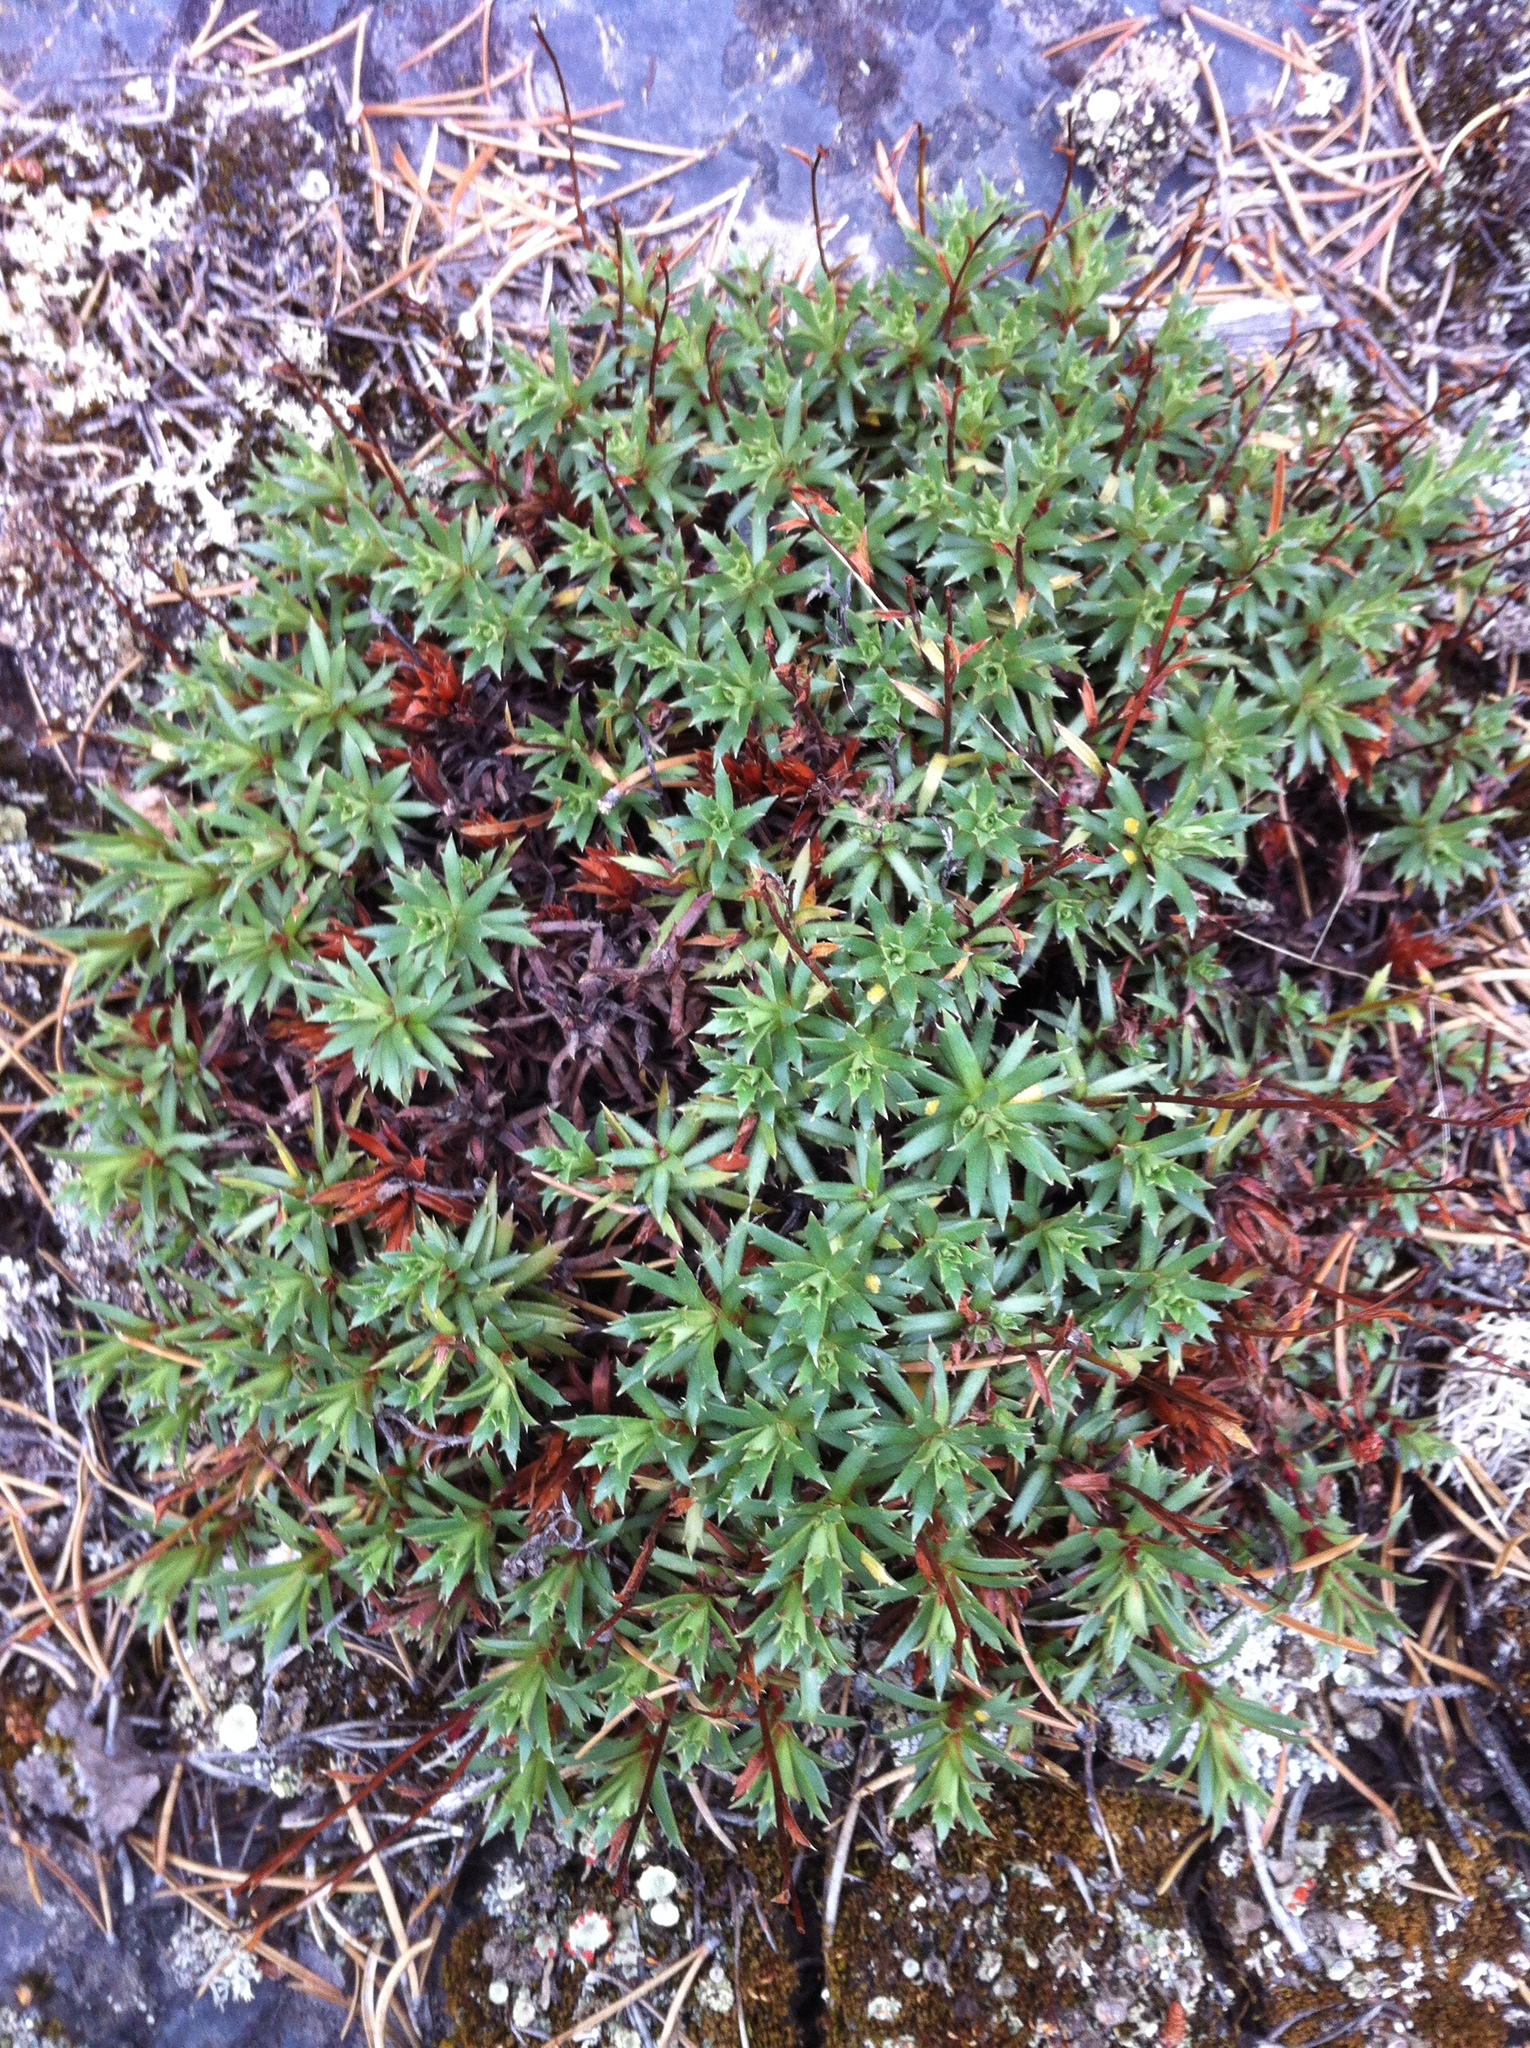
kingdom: Plantae
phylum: Tracheophyta
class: Magnoliopsida
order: Saxifragales
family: Saxifragaceae
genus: Saxifraga
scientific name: Saxifraga tricuspidata
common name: Prickly saxifrage
